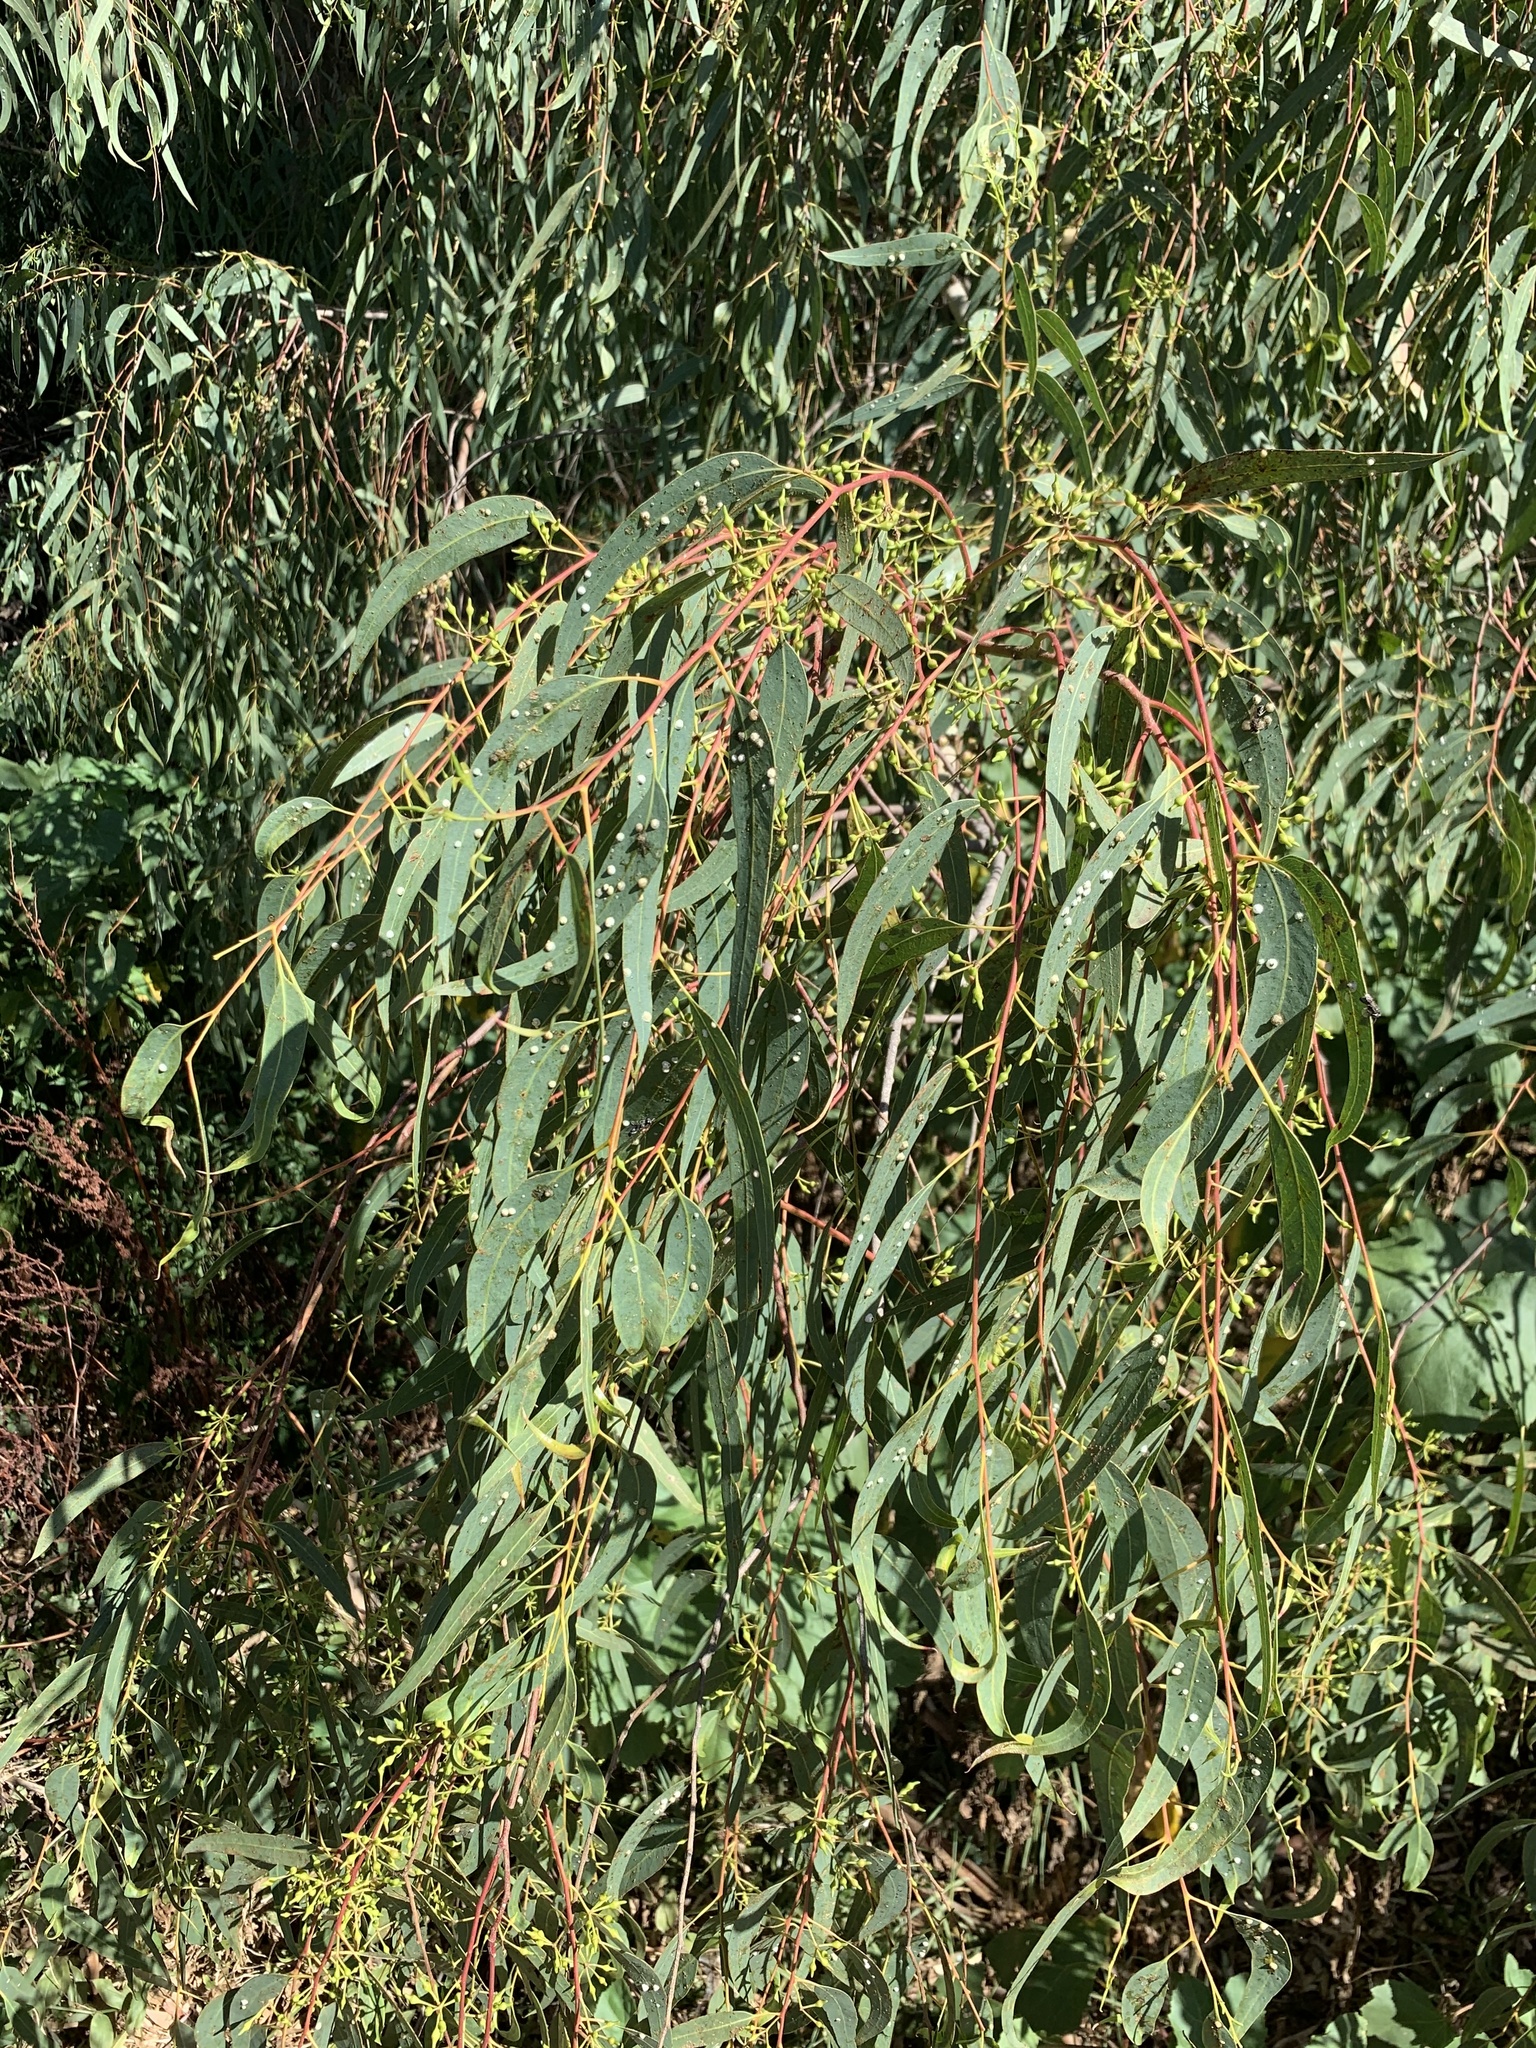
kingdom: Plantae
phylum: Tracheophyta
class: Magnoliopsida
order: Myrtales
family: Myrtaceae
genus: Eucalyptus
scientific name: Eucalyptus camaldulensis
